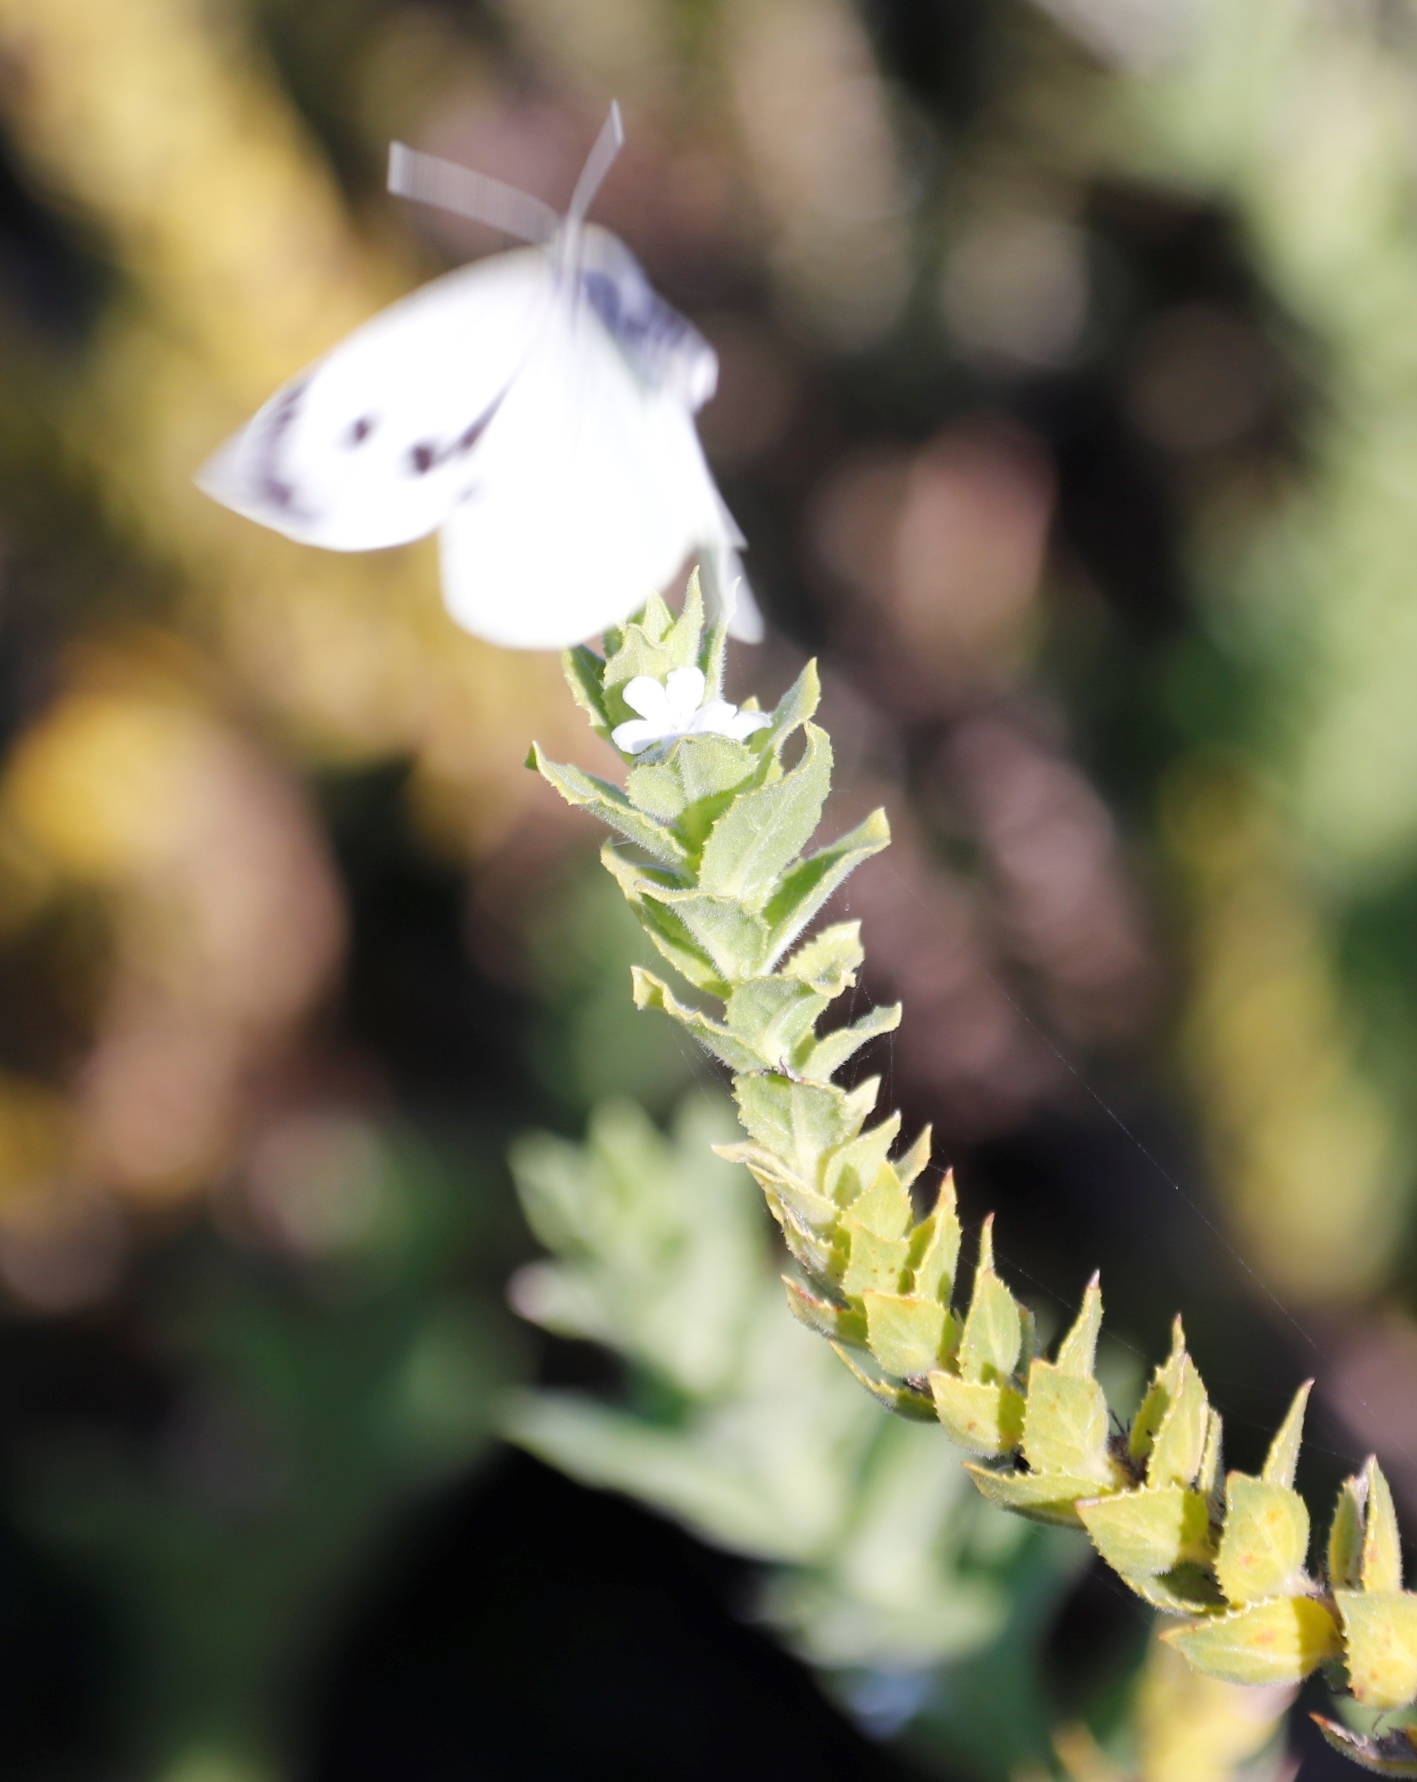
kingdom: Animalia
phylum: Arthropoda
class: Insecta
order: Lepidoptera
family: Pieridae
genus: Pieris
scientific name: Pieris brassicae
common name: Large white
